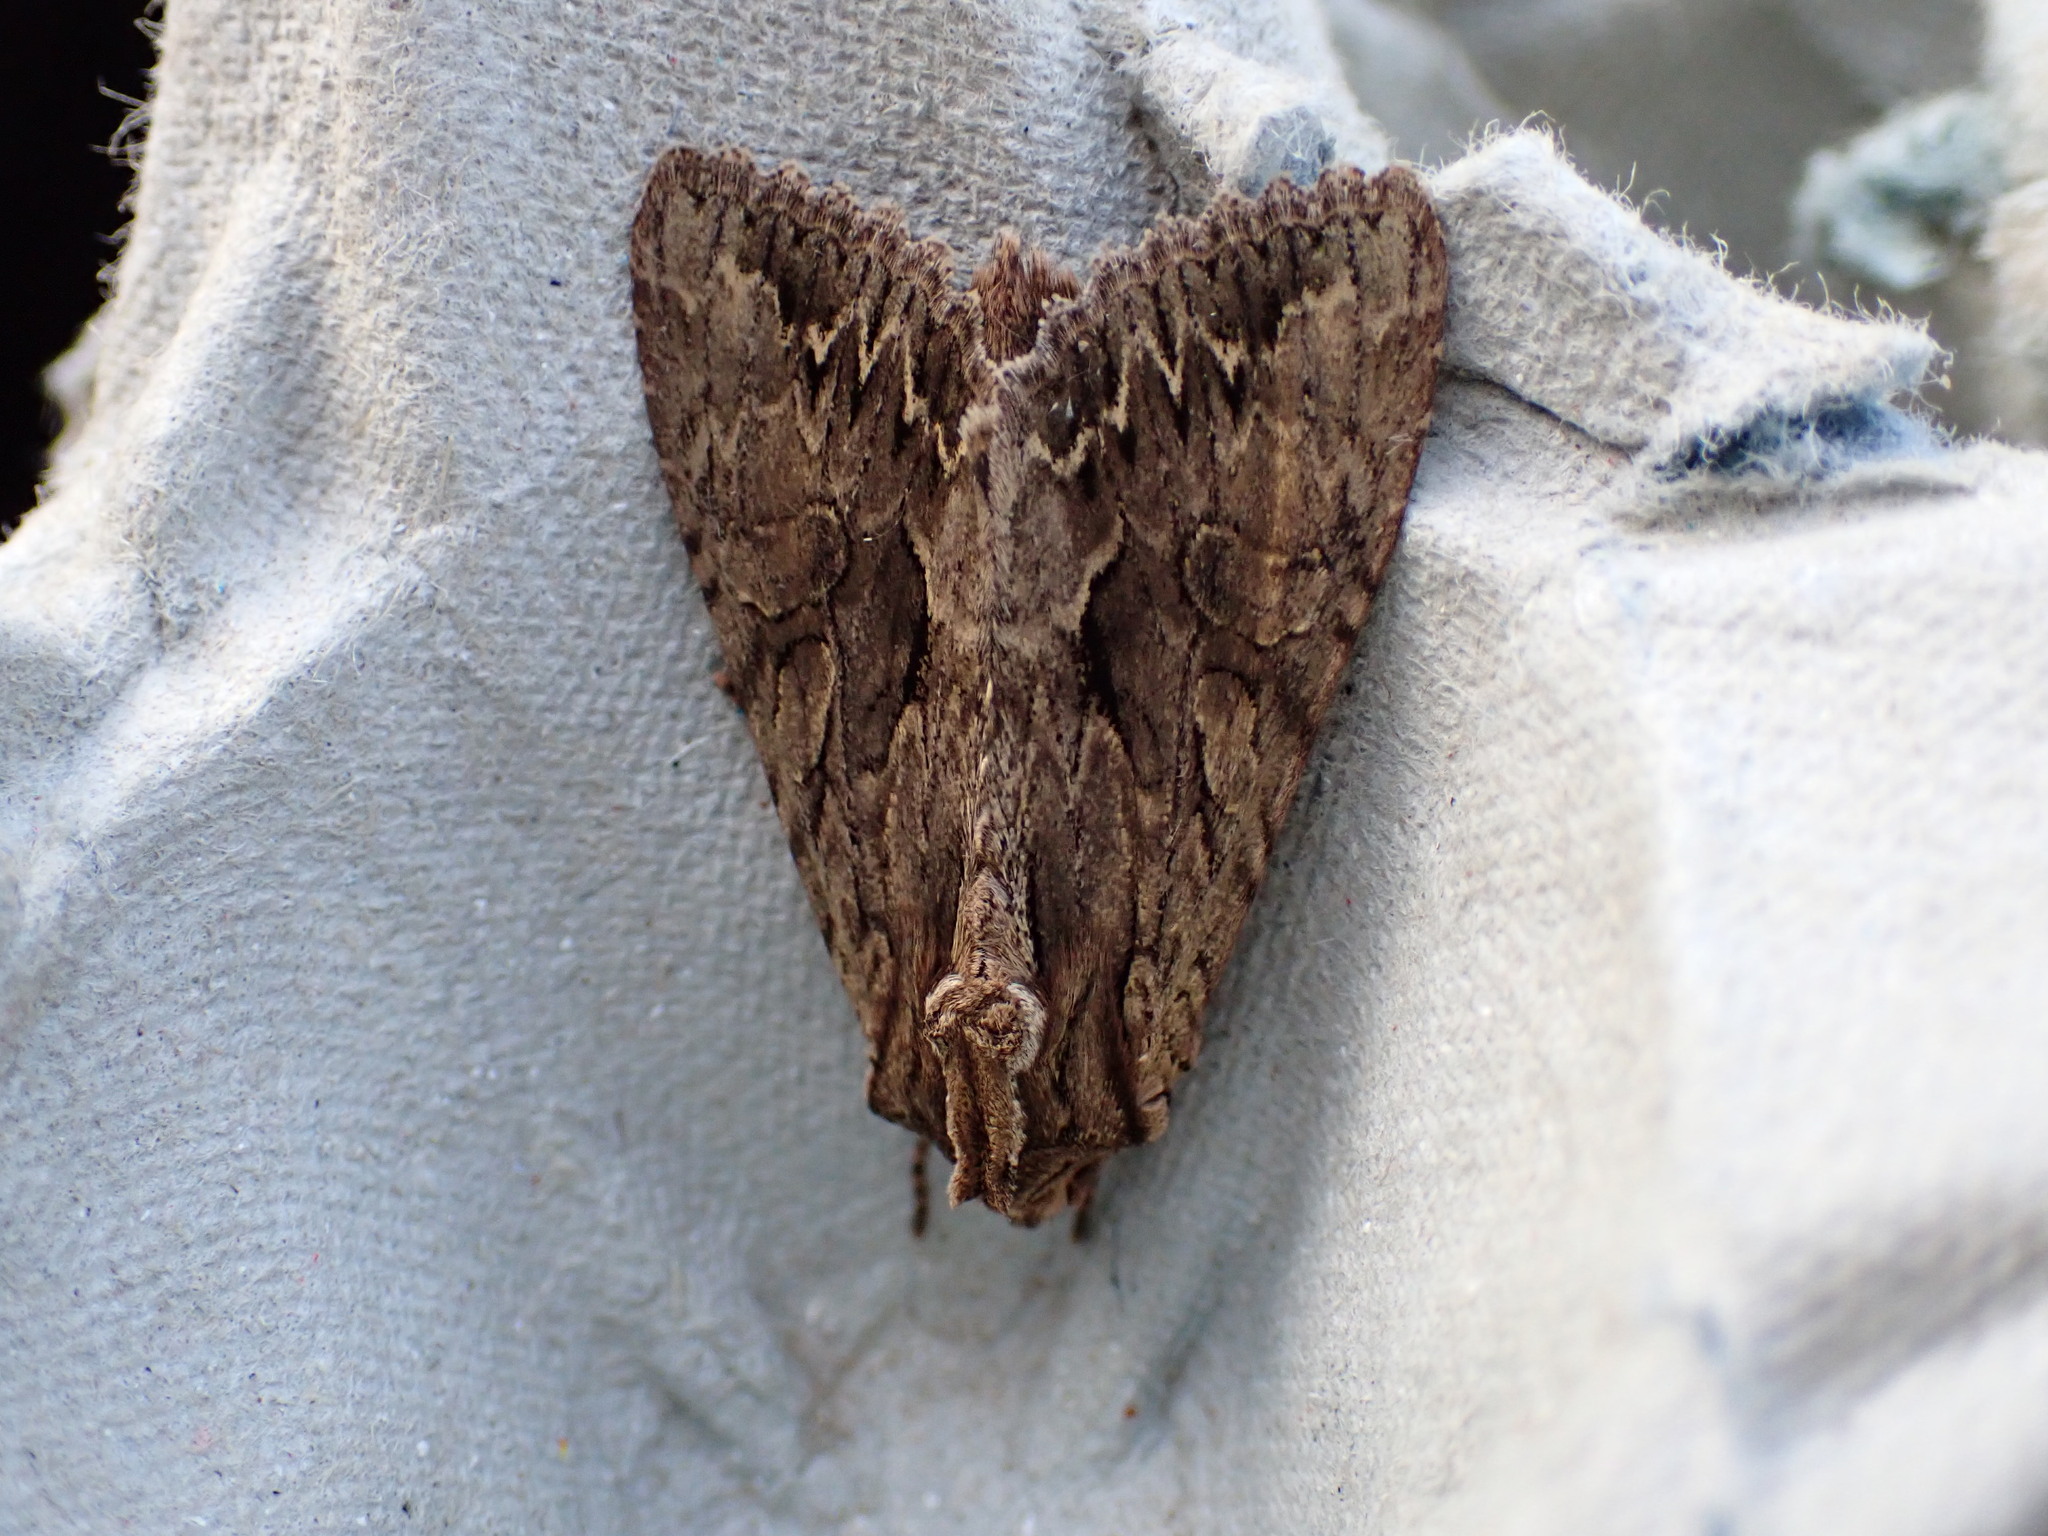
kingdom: Animalia
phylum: Arthropoda
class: Insecta
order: Lepidoptera
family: Noctuidae
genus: Apamea
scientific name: Apamea monoglypha
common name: Dark arches
